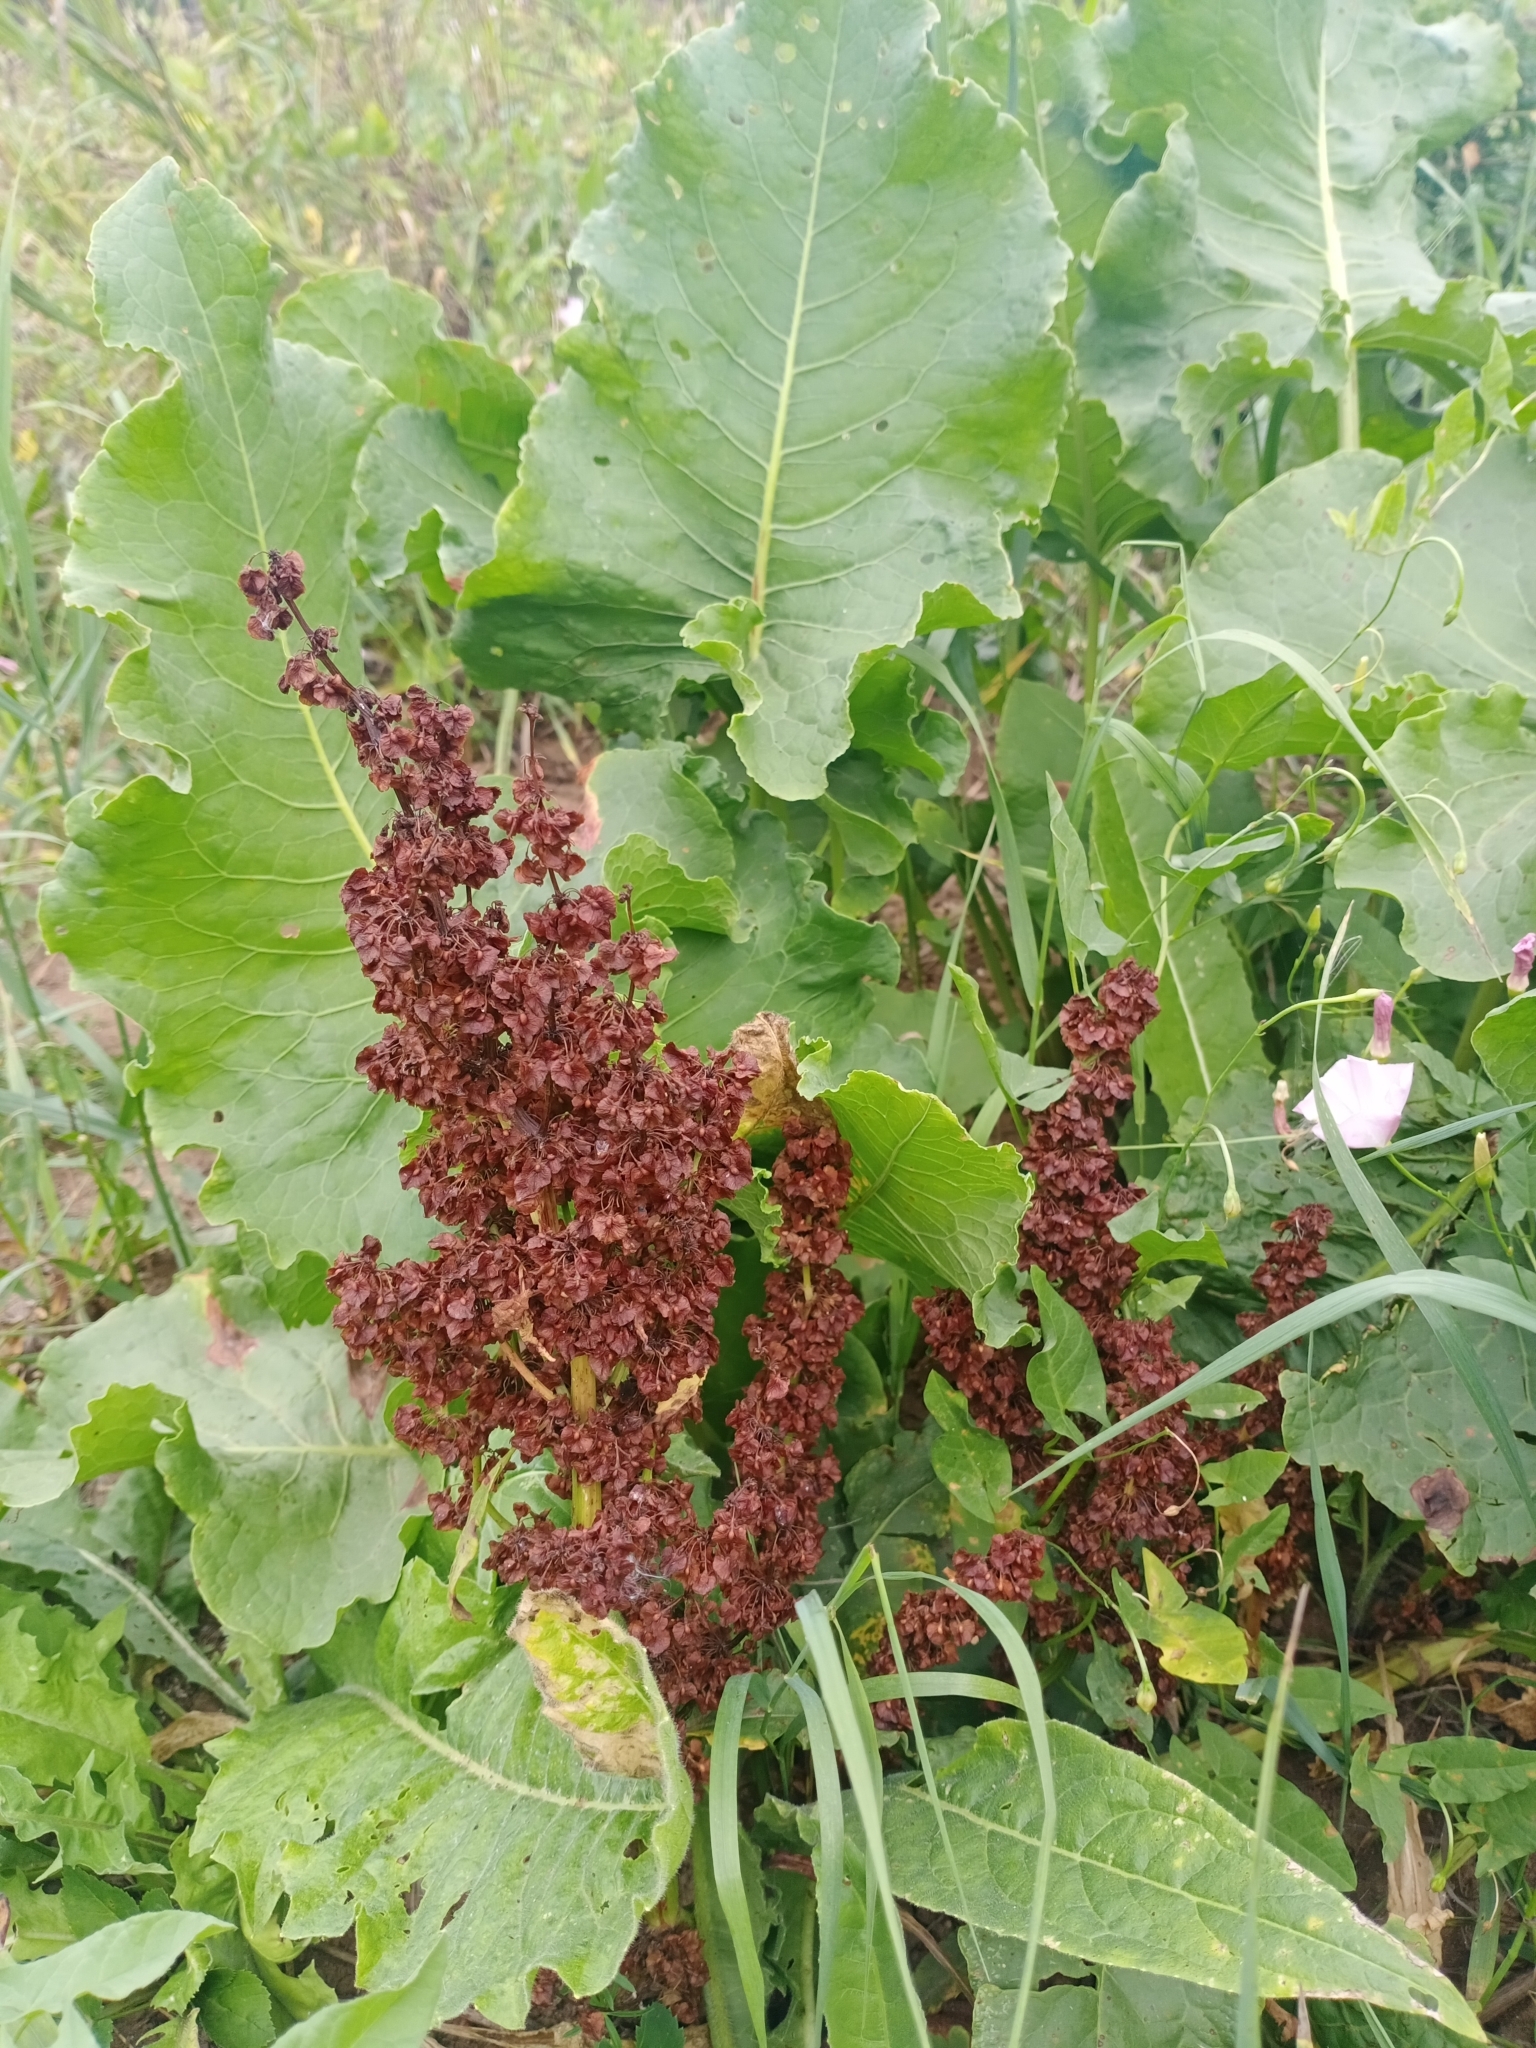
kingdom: Plantae
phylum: Tracheophyta
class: Magnoliopsida
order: Caryophyllales
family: Polygonaceae
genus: Rumex
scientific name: Rumex confertus
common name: Russian dock
